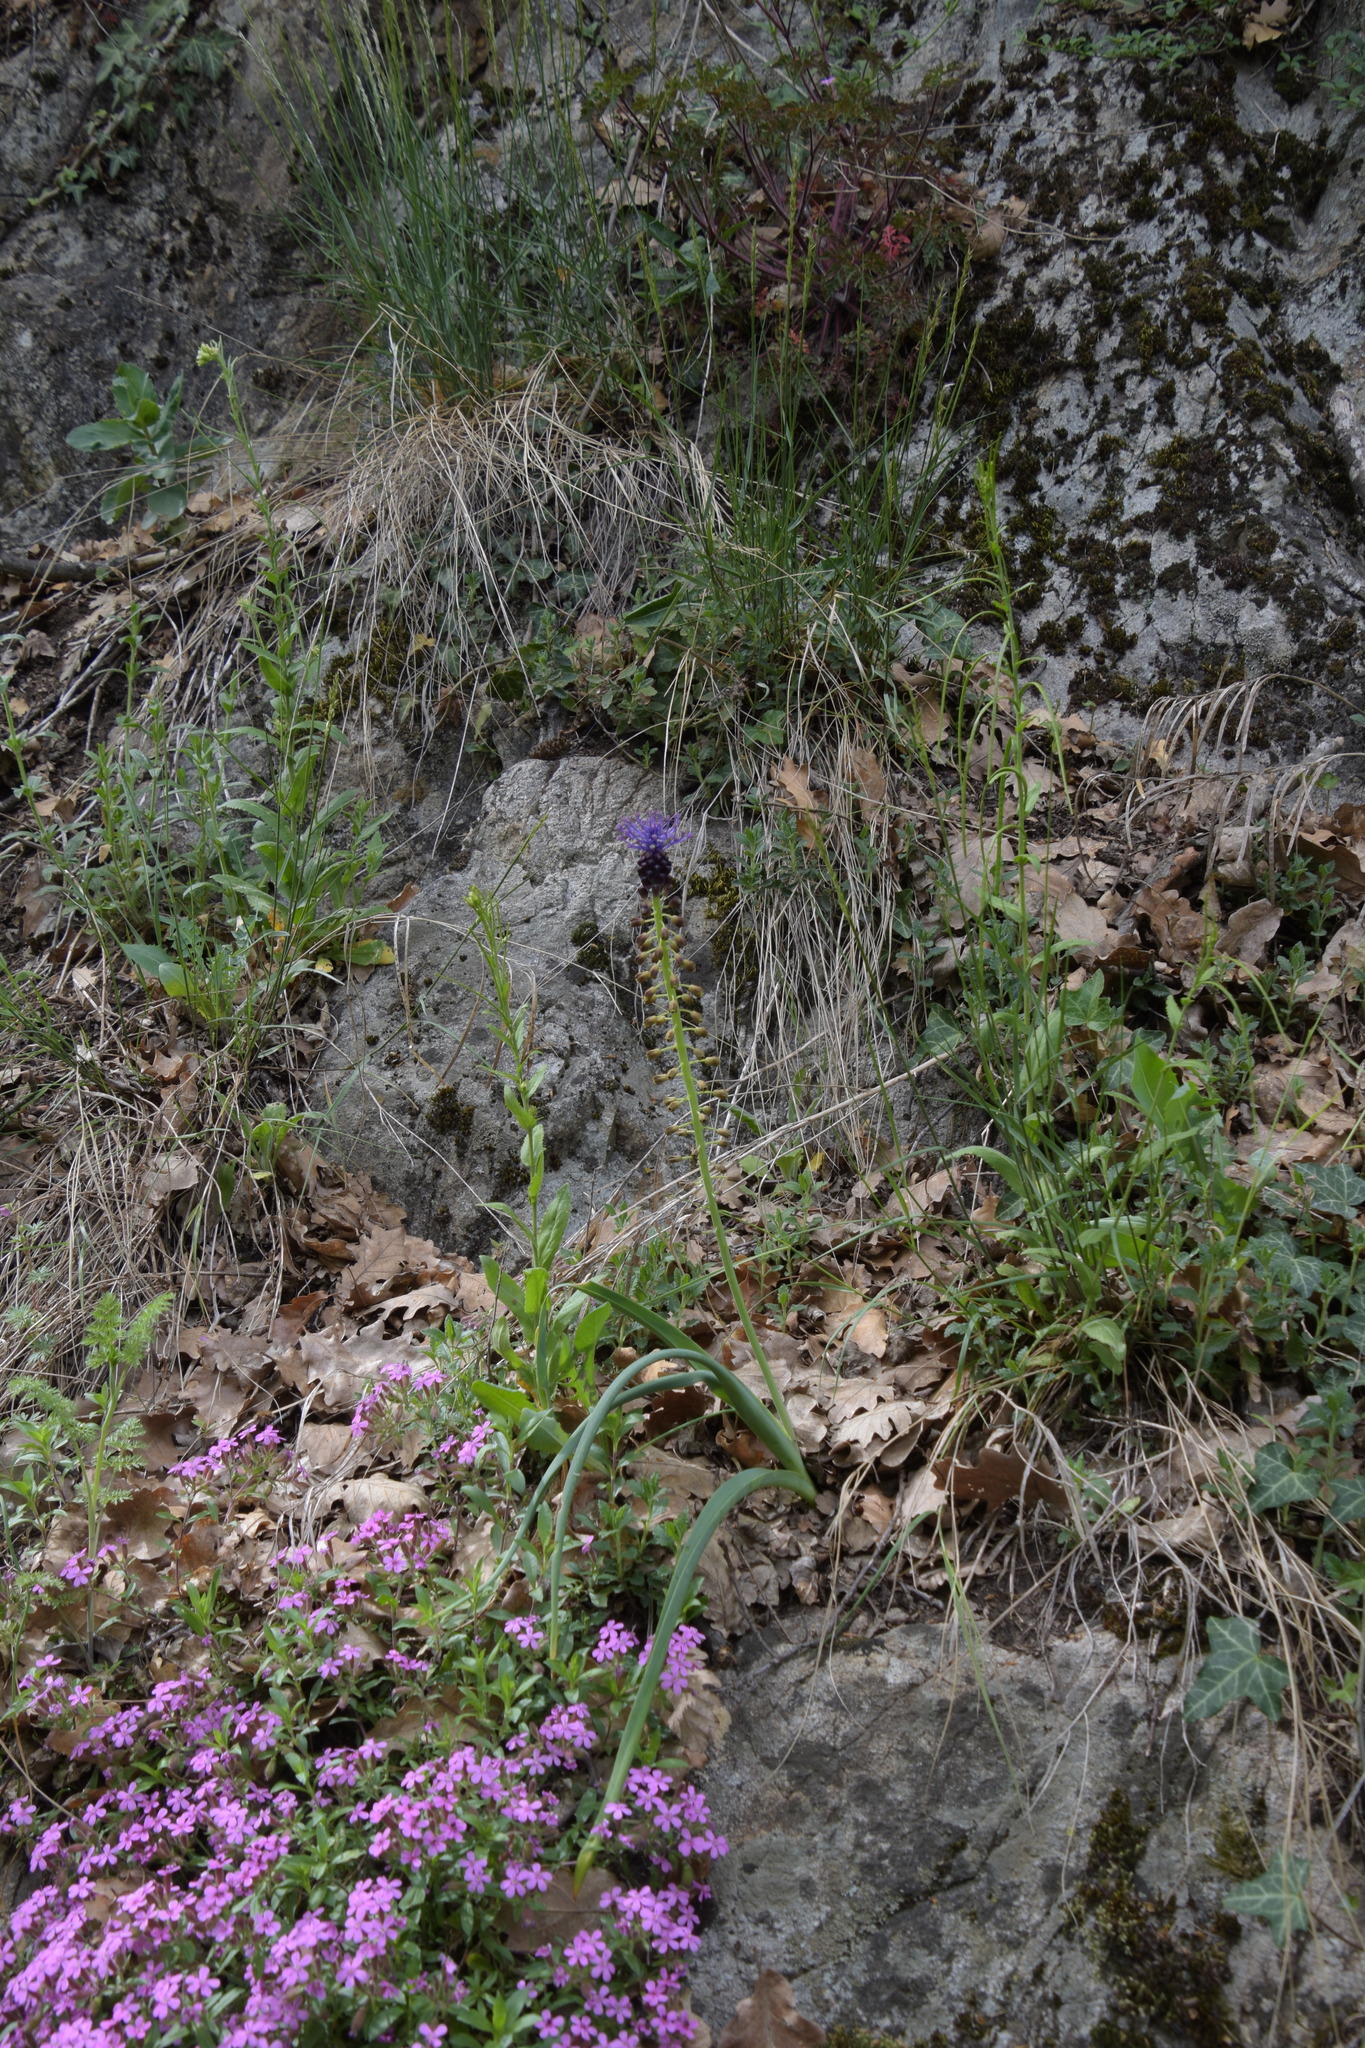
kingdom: Plantae
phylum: Tracheophyta
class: Liliopsida
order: Asparagales
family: Asparagaceae
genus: Muscari
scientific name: Muscari comosum
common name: Tassel hyacinth
